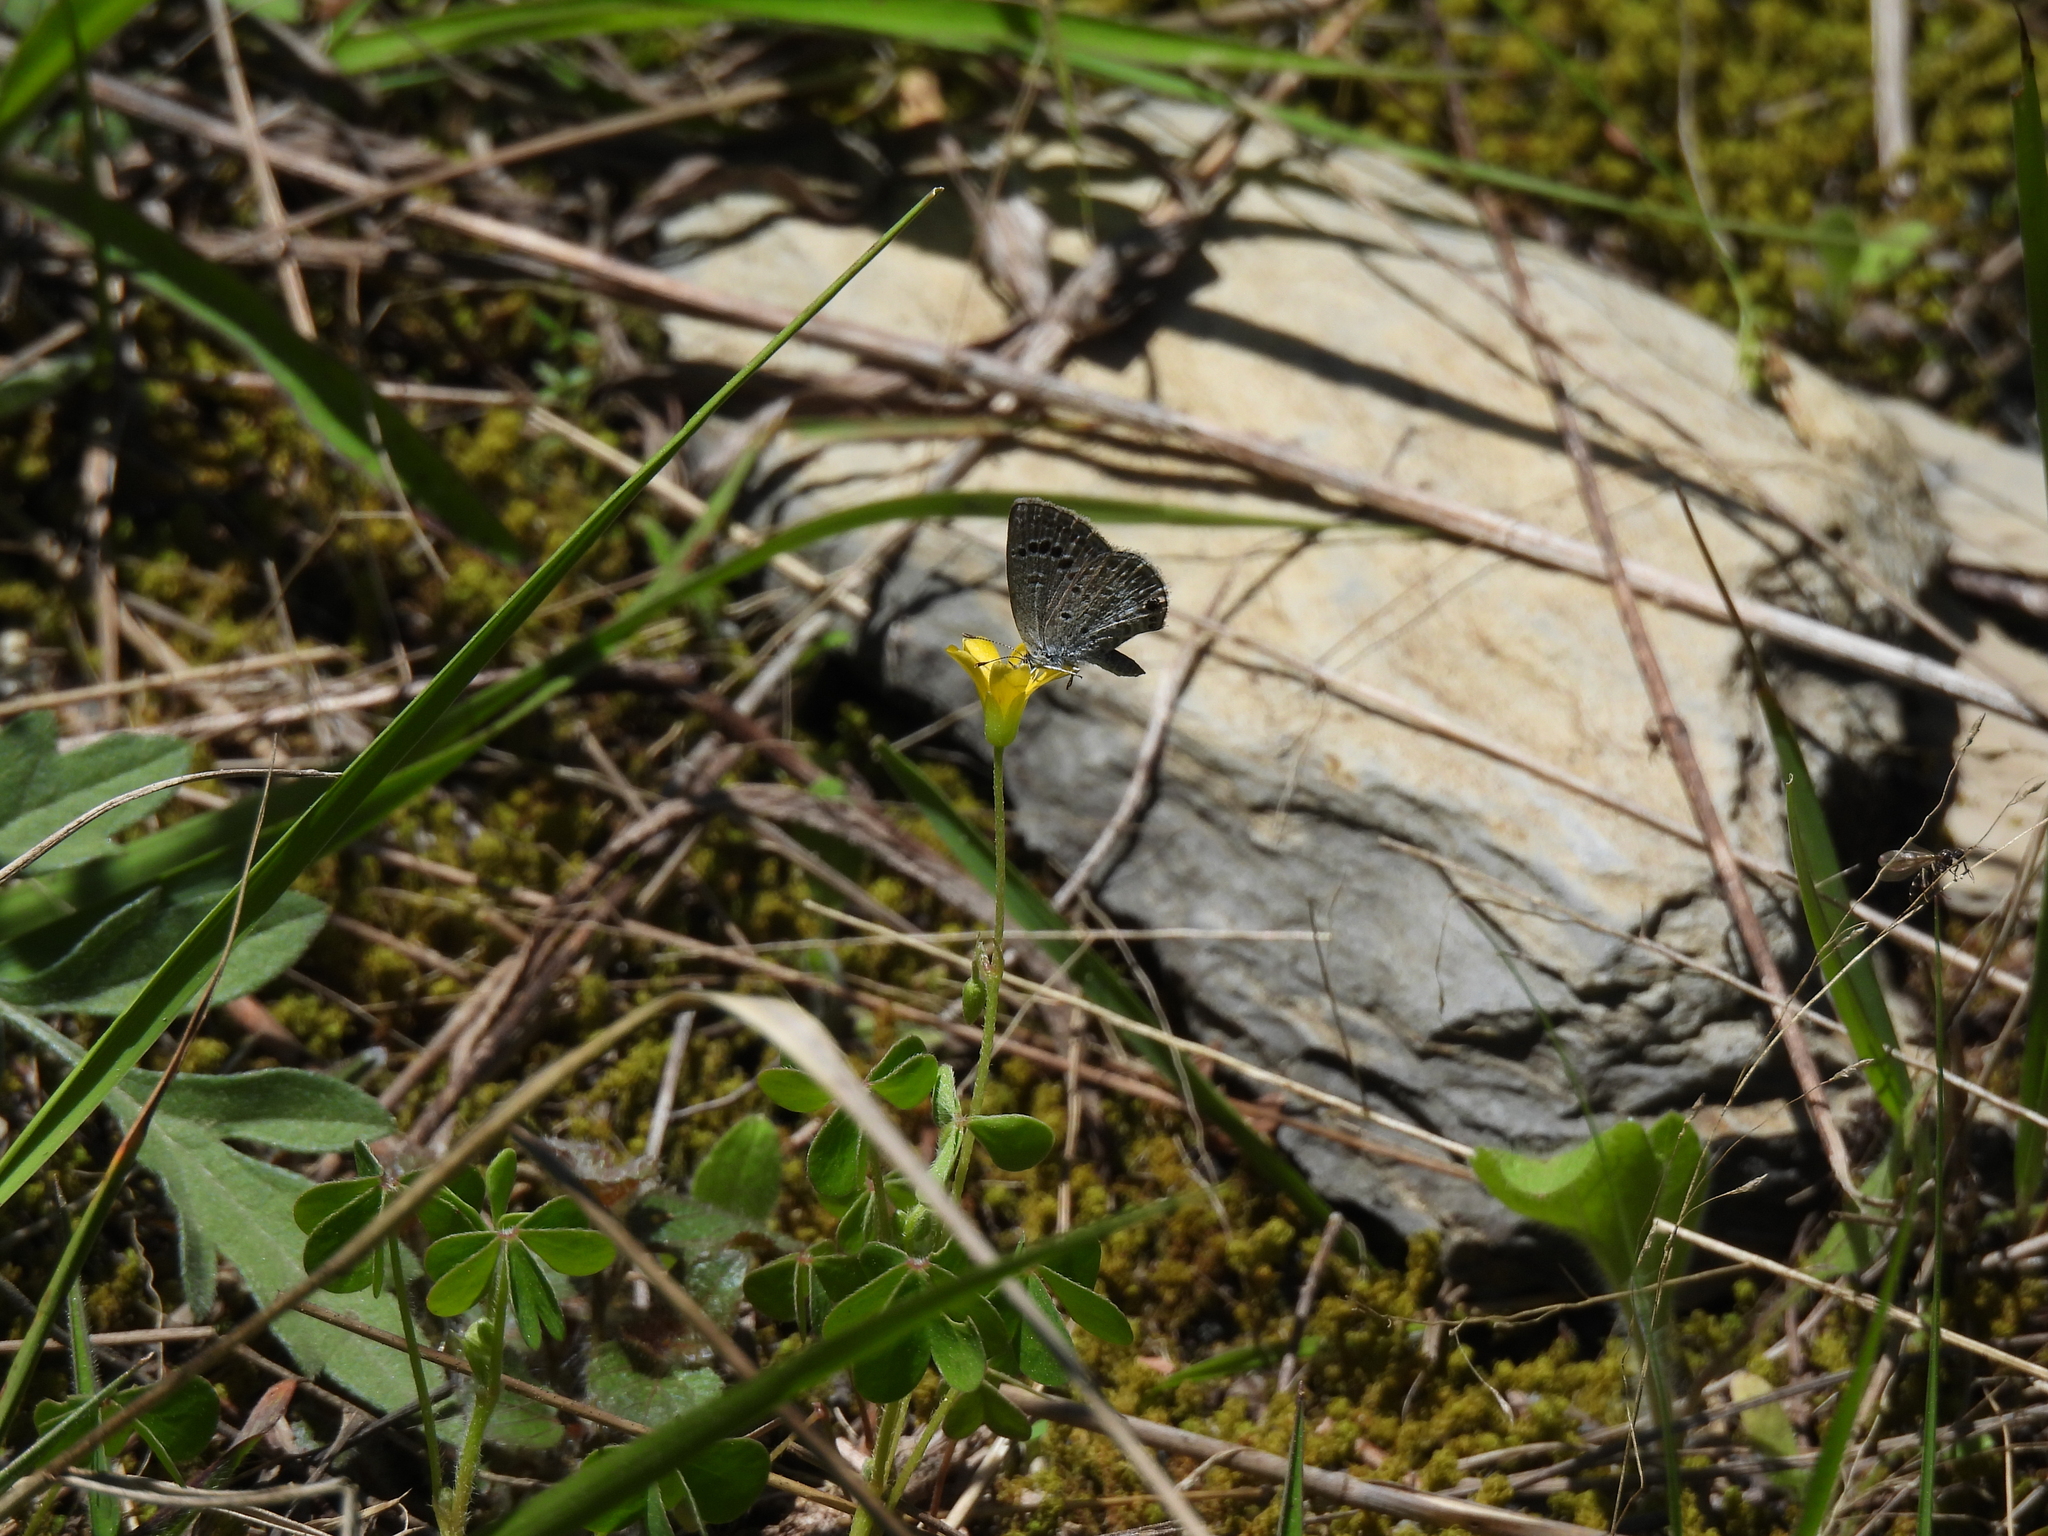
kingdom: Animalia
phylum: Arthropoda
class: Insecta
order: Lepidoptera
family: Lycaenidae
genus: Echinargus
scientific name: Echinargus isola
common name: Reakirt's blue
